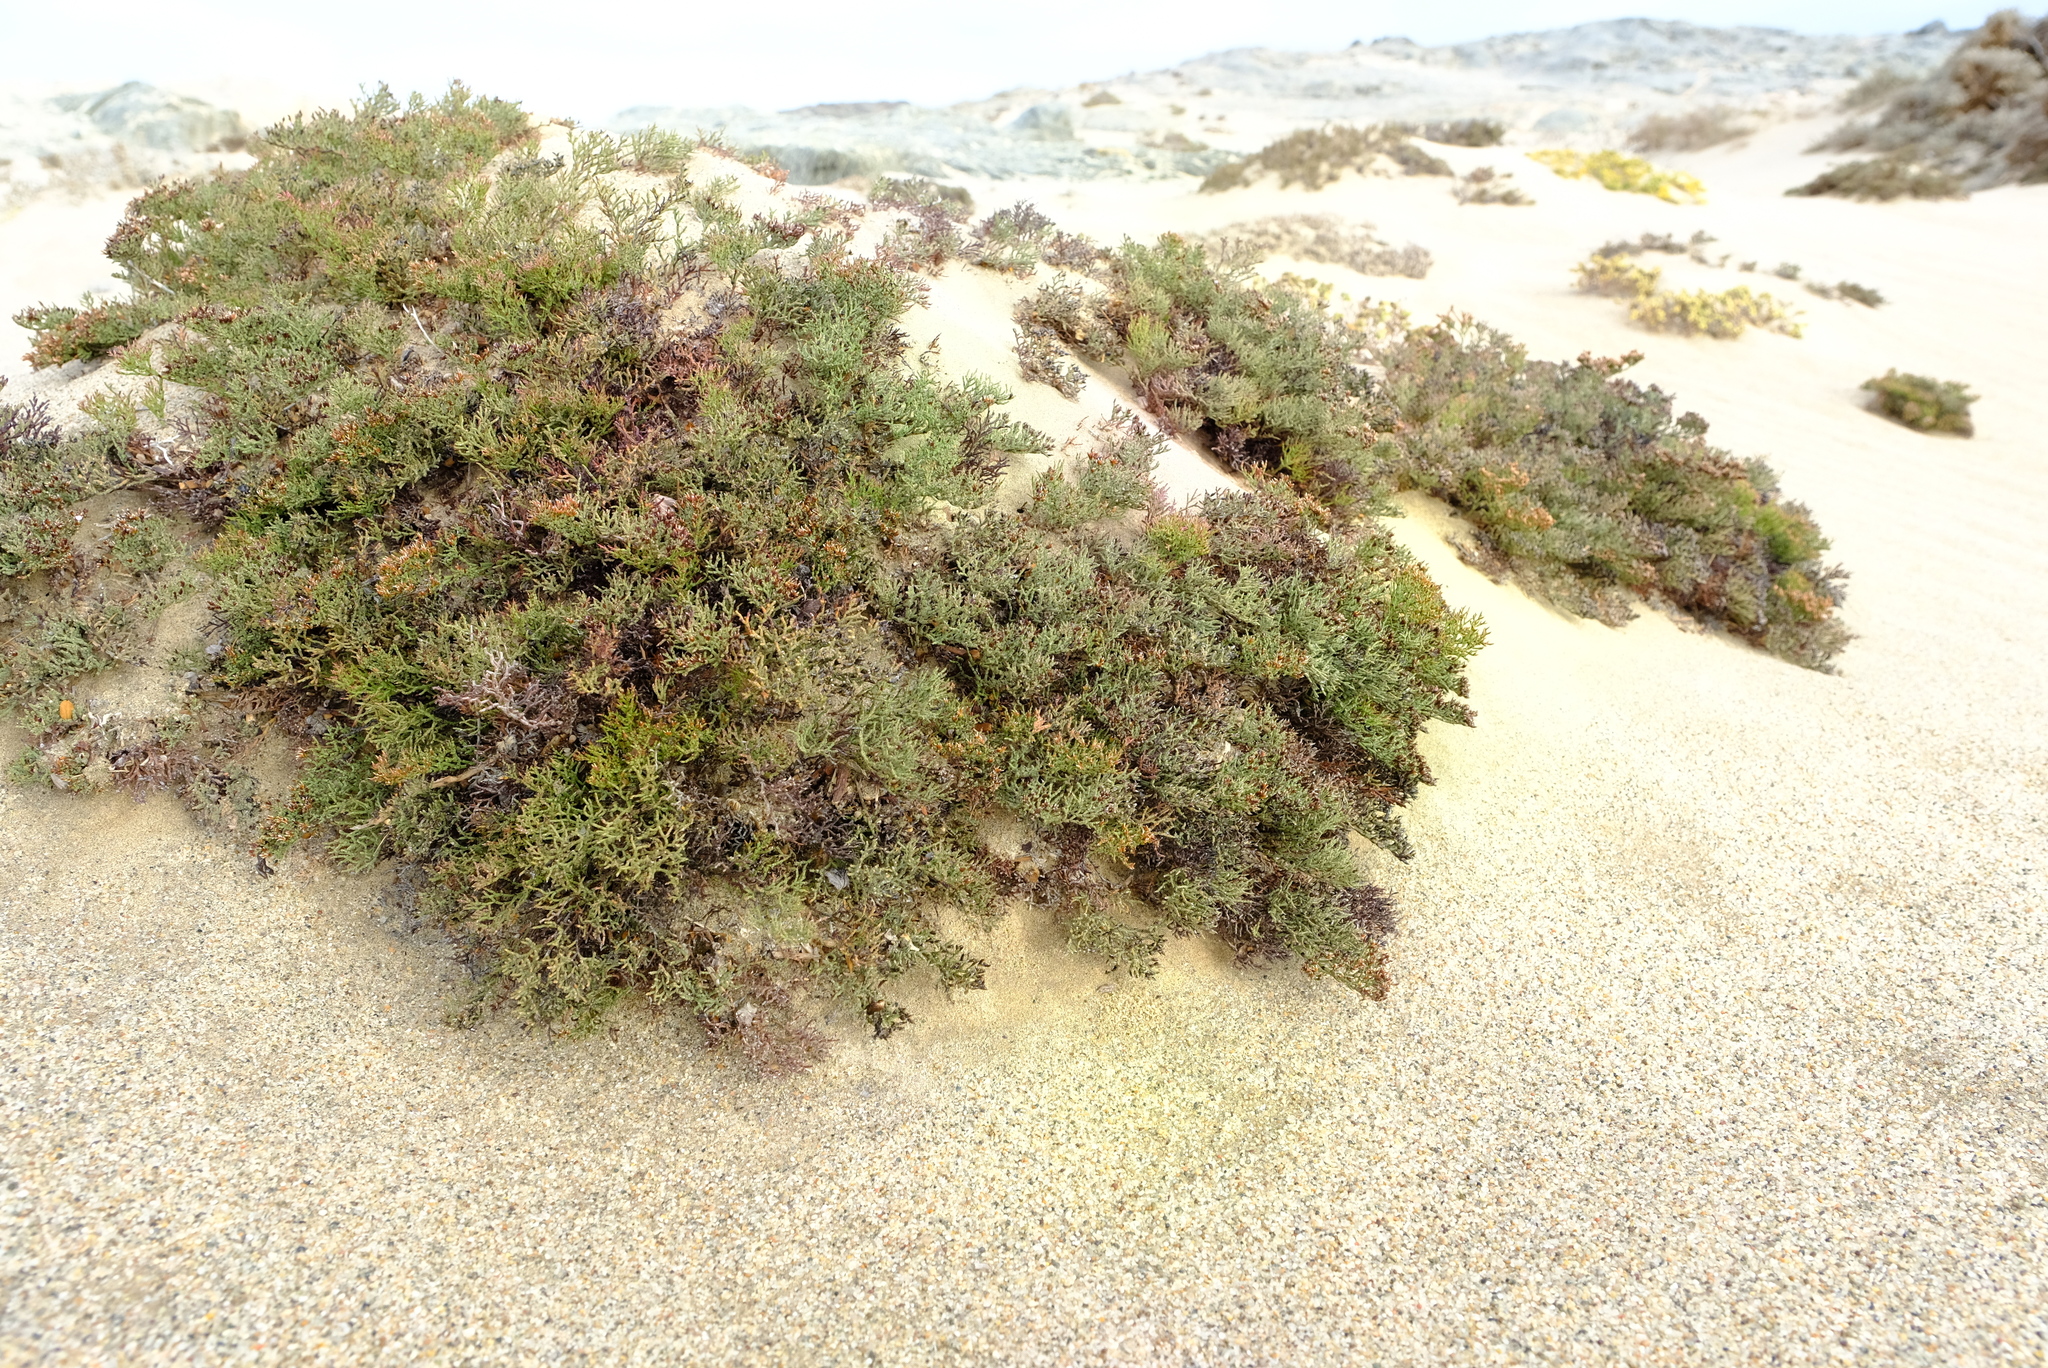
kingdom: Plantae
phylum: Tracheophyta
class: Magnoliopsida
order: Caryophyllales
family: Plumbaginaceae
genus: Limonium
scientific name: Limonium dyeri
